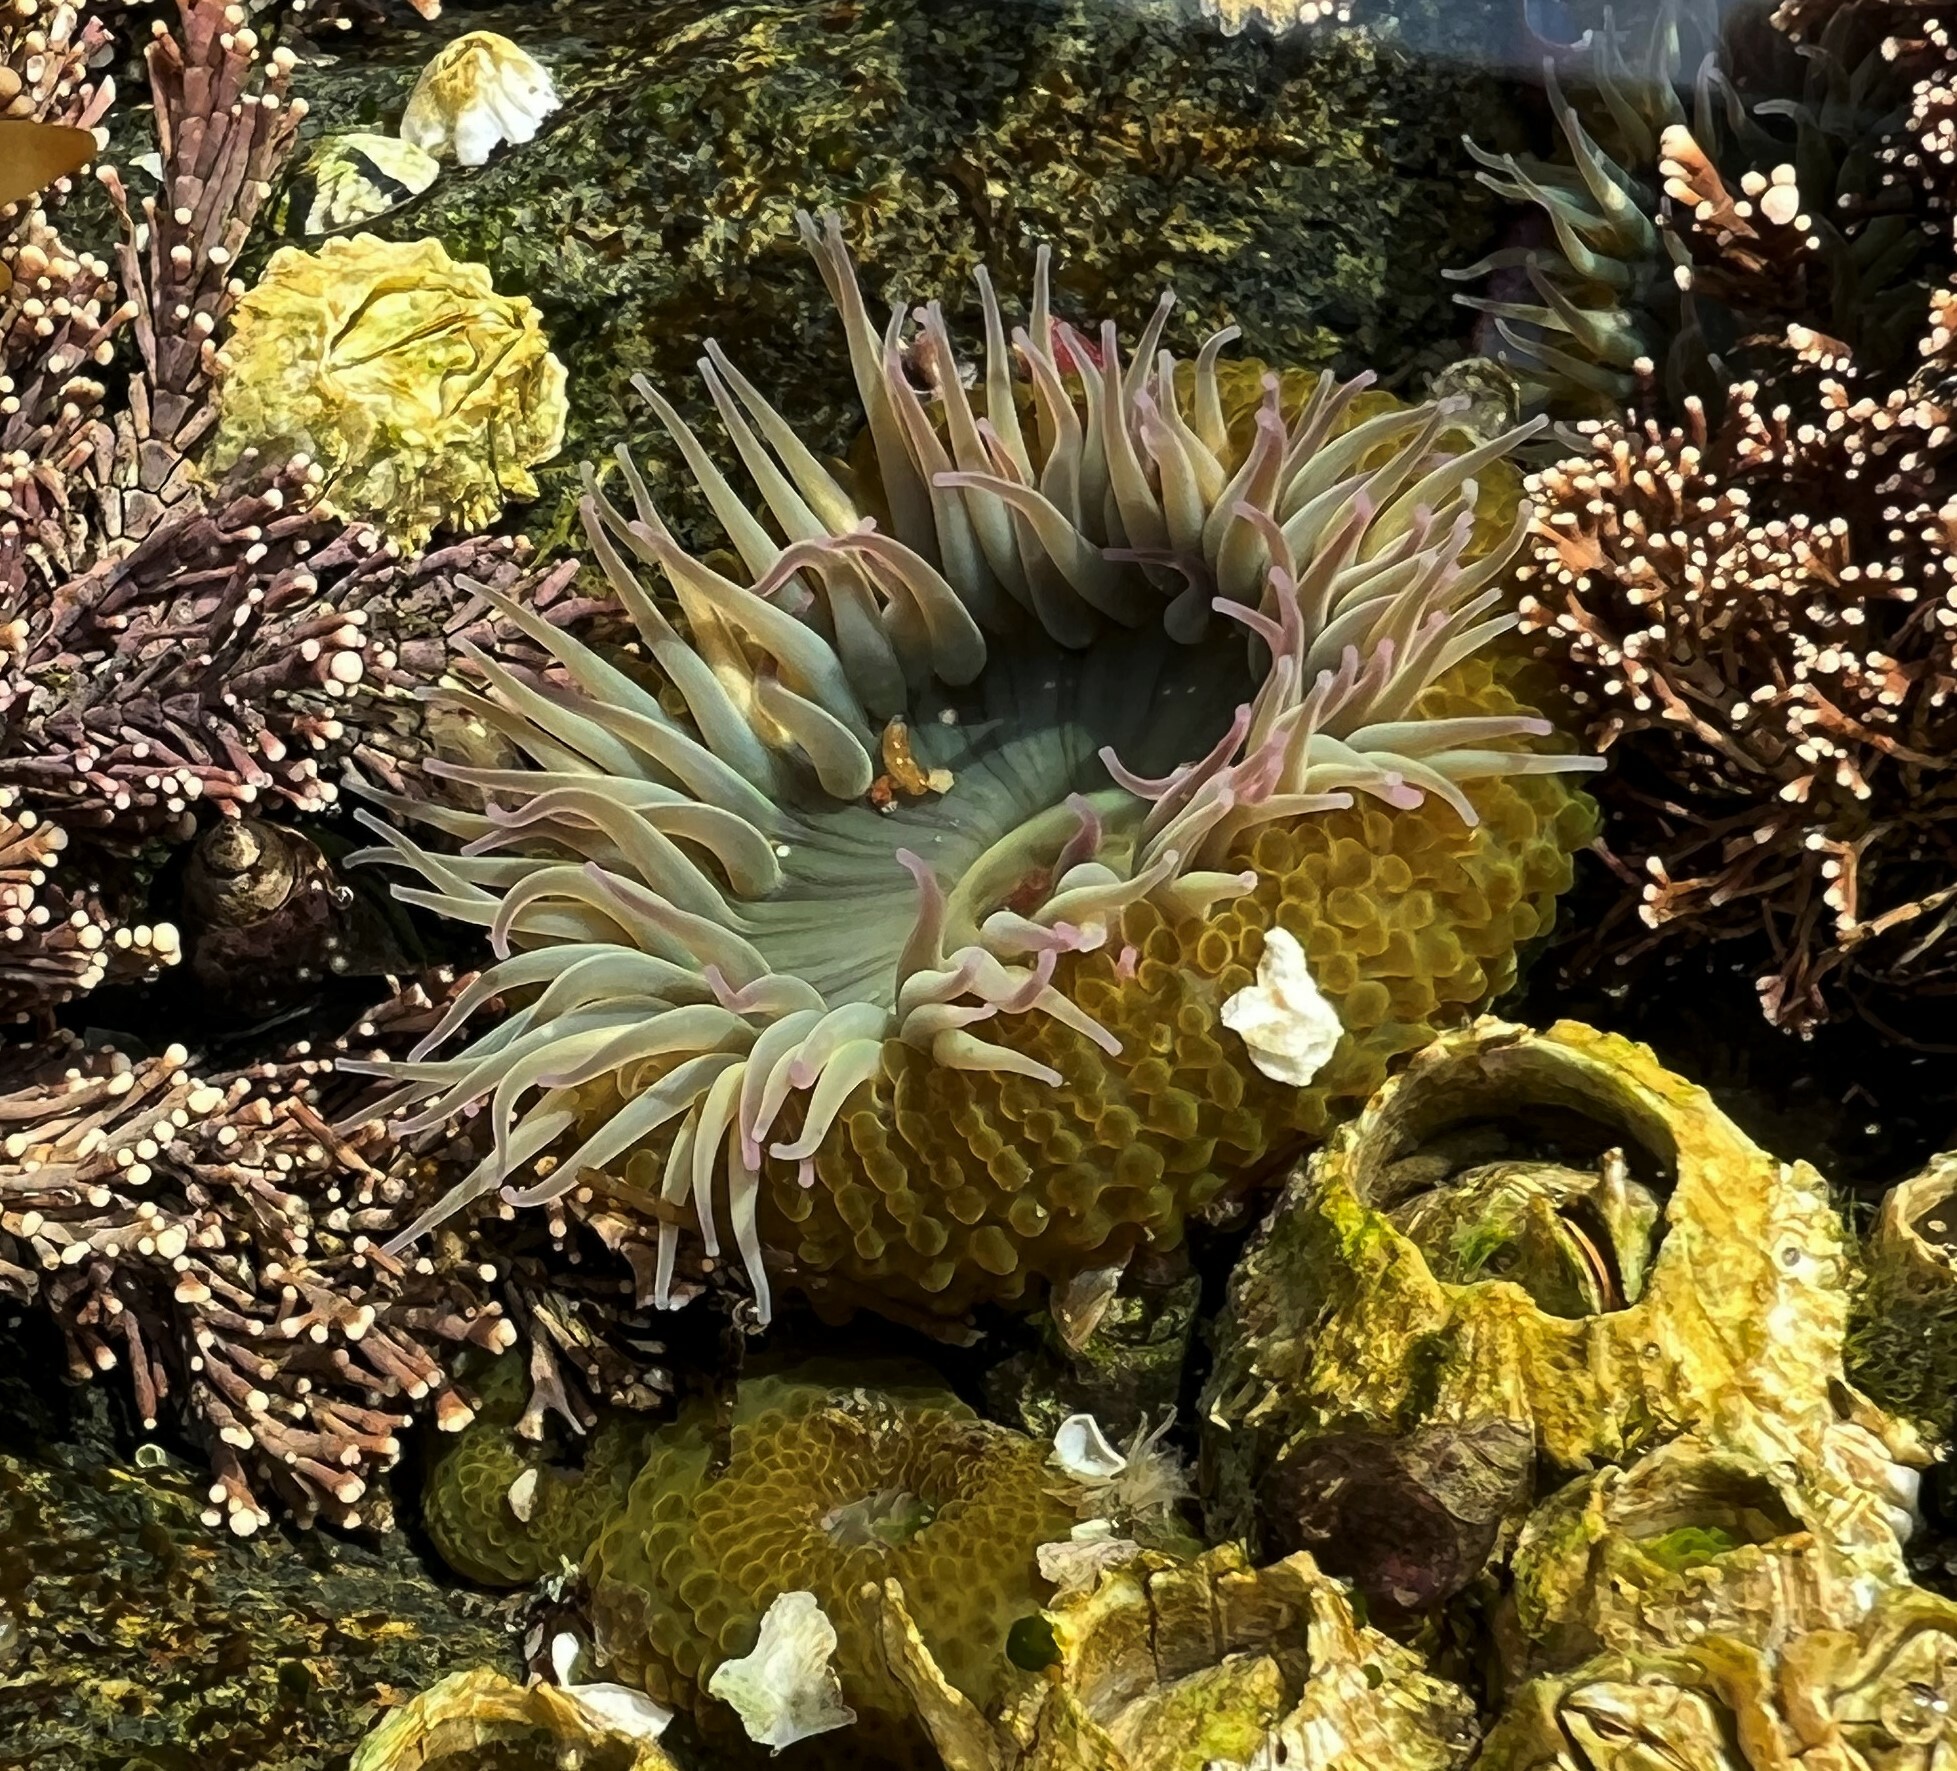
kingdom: Animalia
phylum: Cnidaria
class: Anthozoa
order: Actiniaria
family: Actiniidae
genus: Anthopleura
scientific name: Anthopleura elegantissima
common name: Clonal anemone
